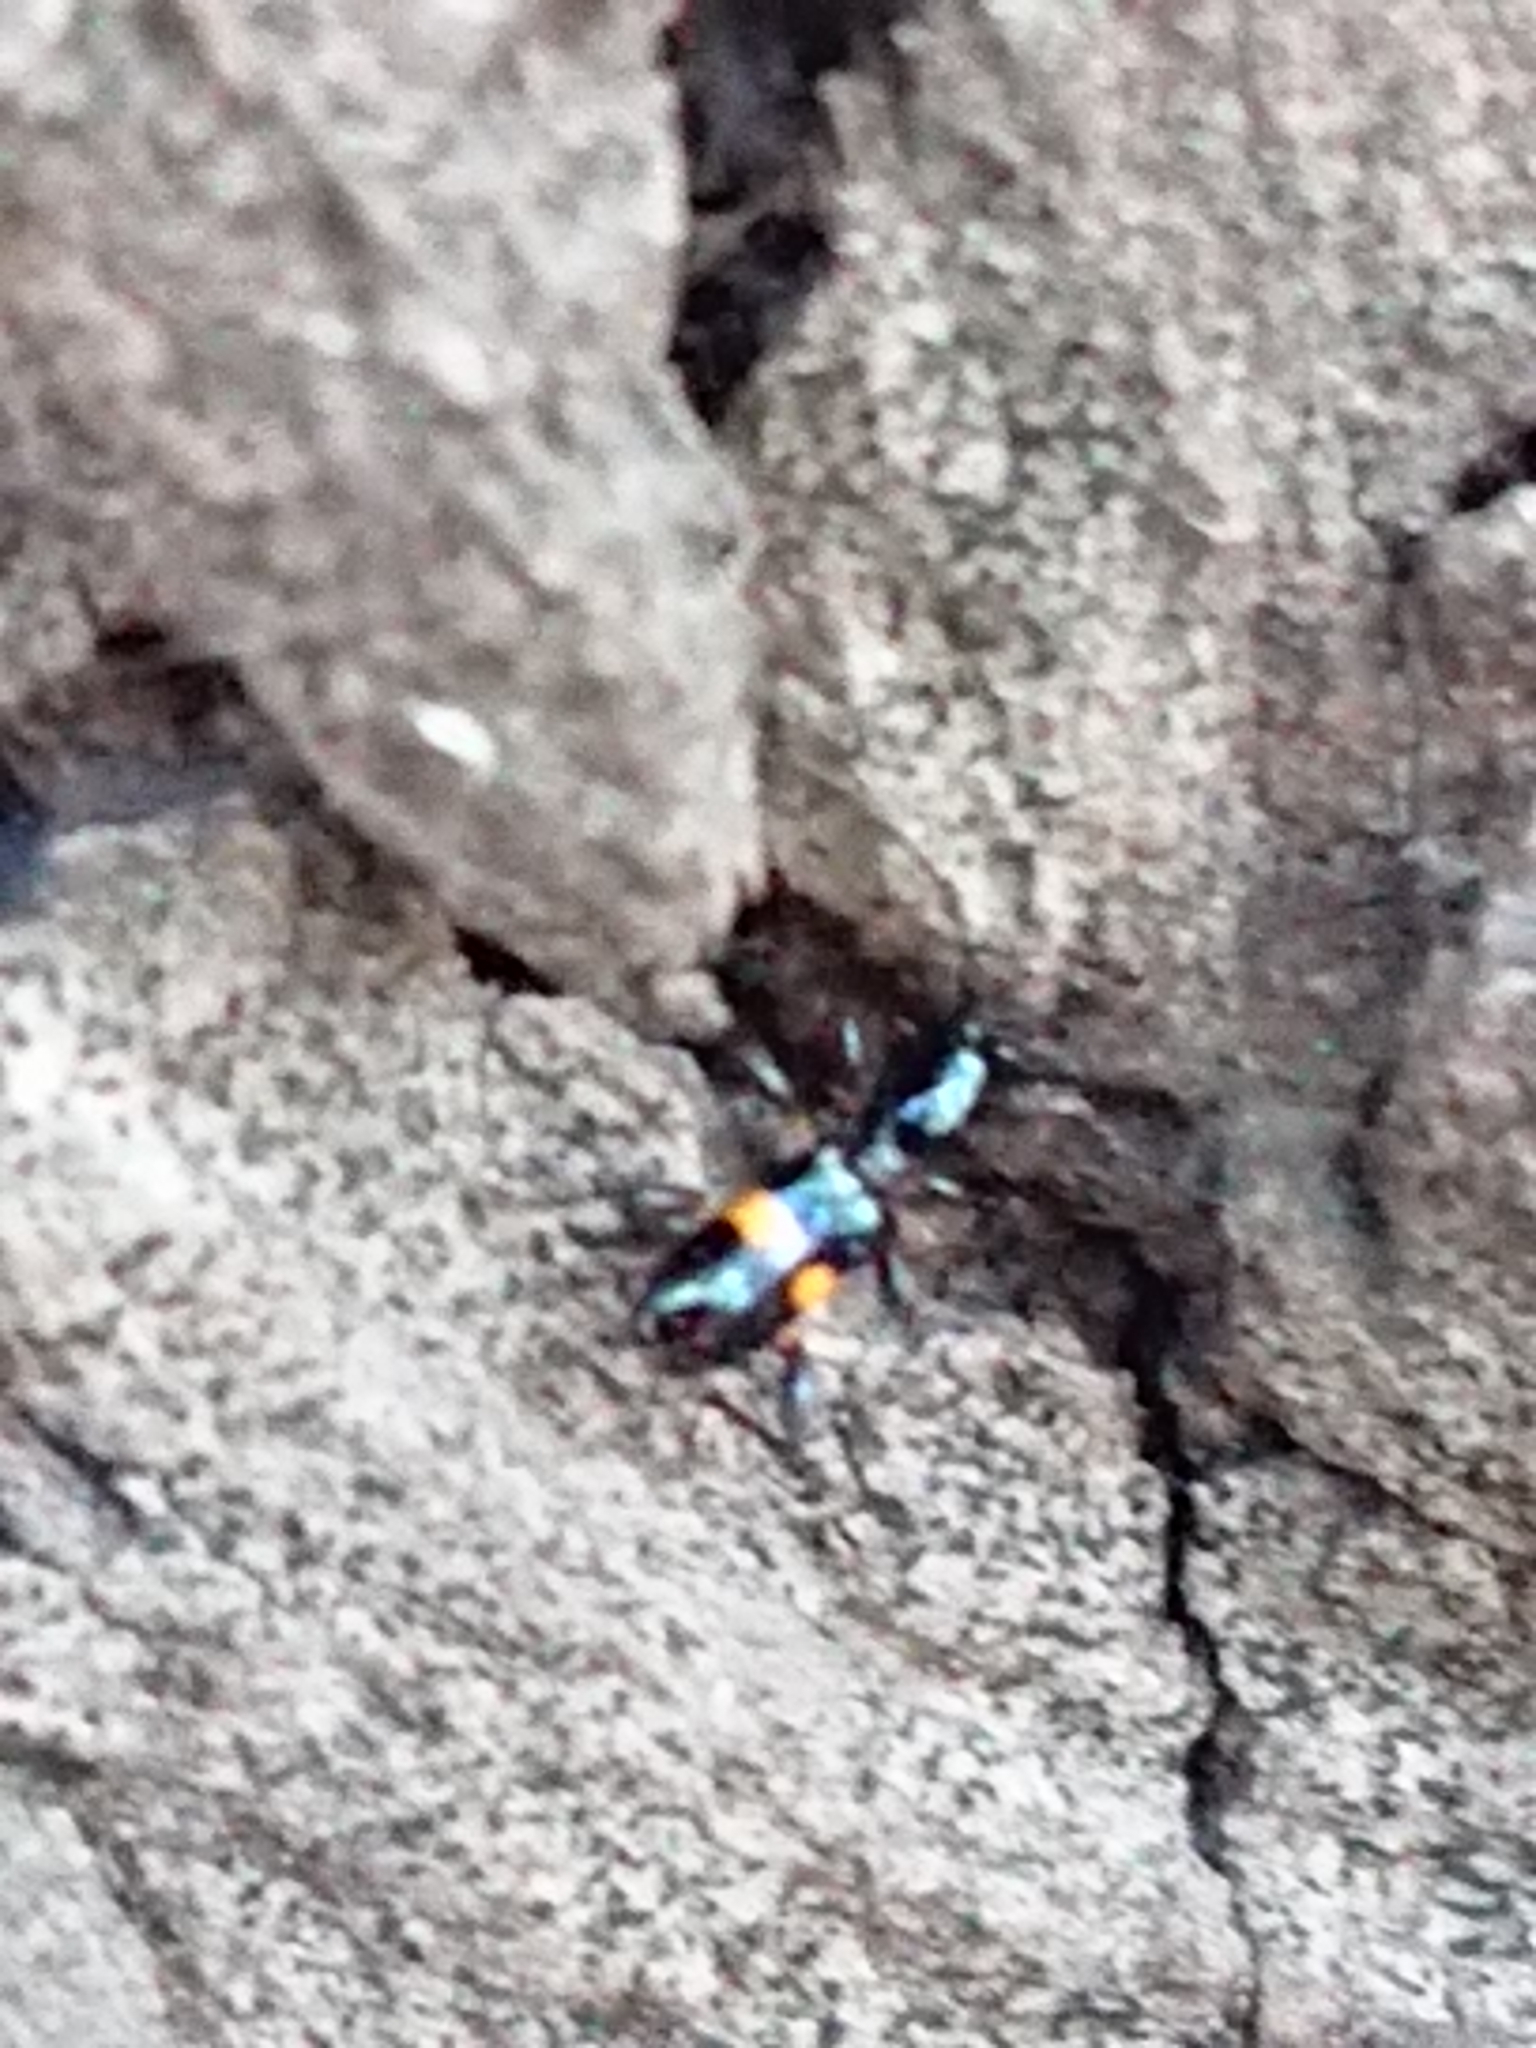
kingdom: Animalia
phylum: Arthropoda
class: Insecta
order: Coleoptera
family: Cerambycidae
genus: Zorion
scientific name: Zorion guttigerum
